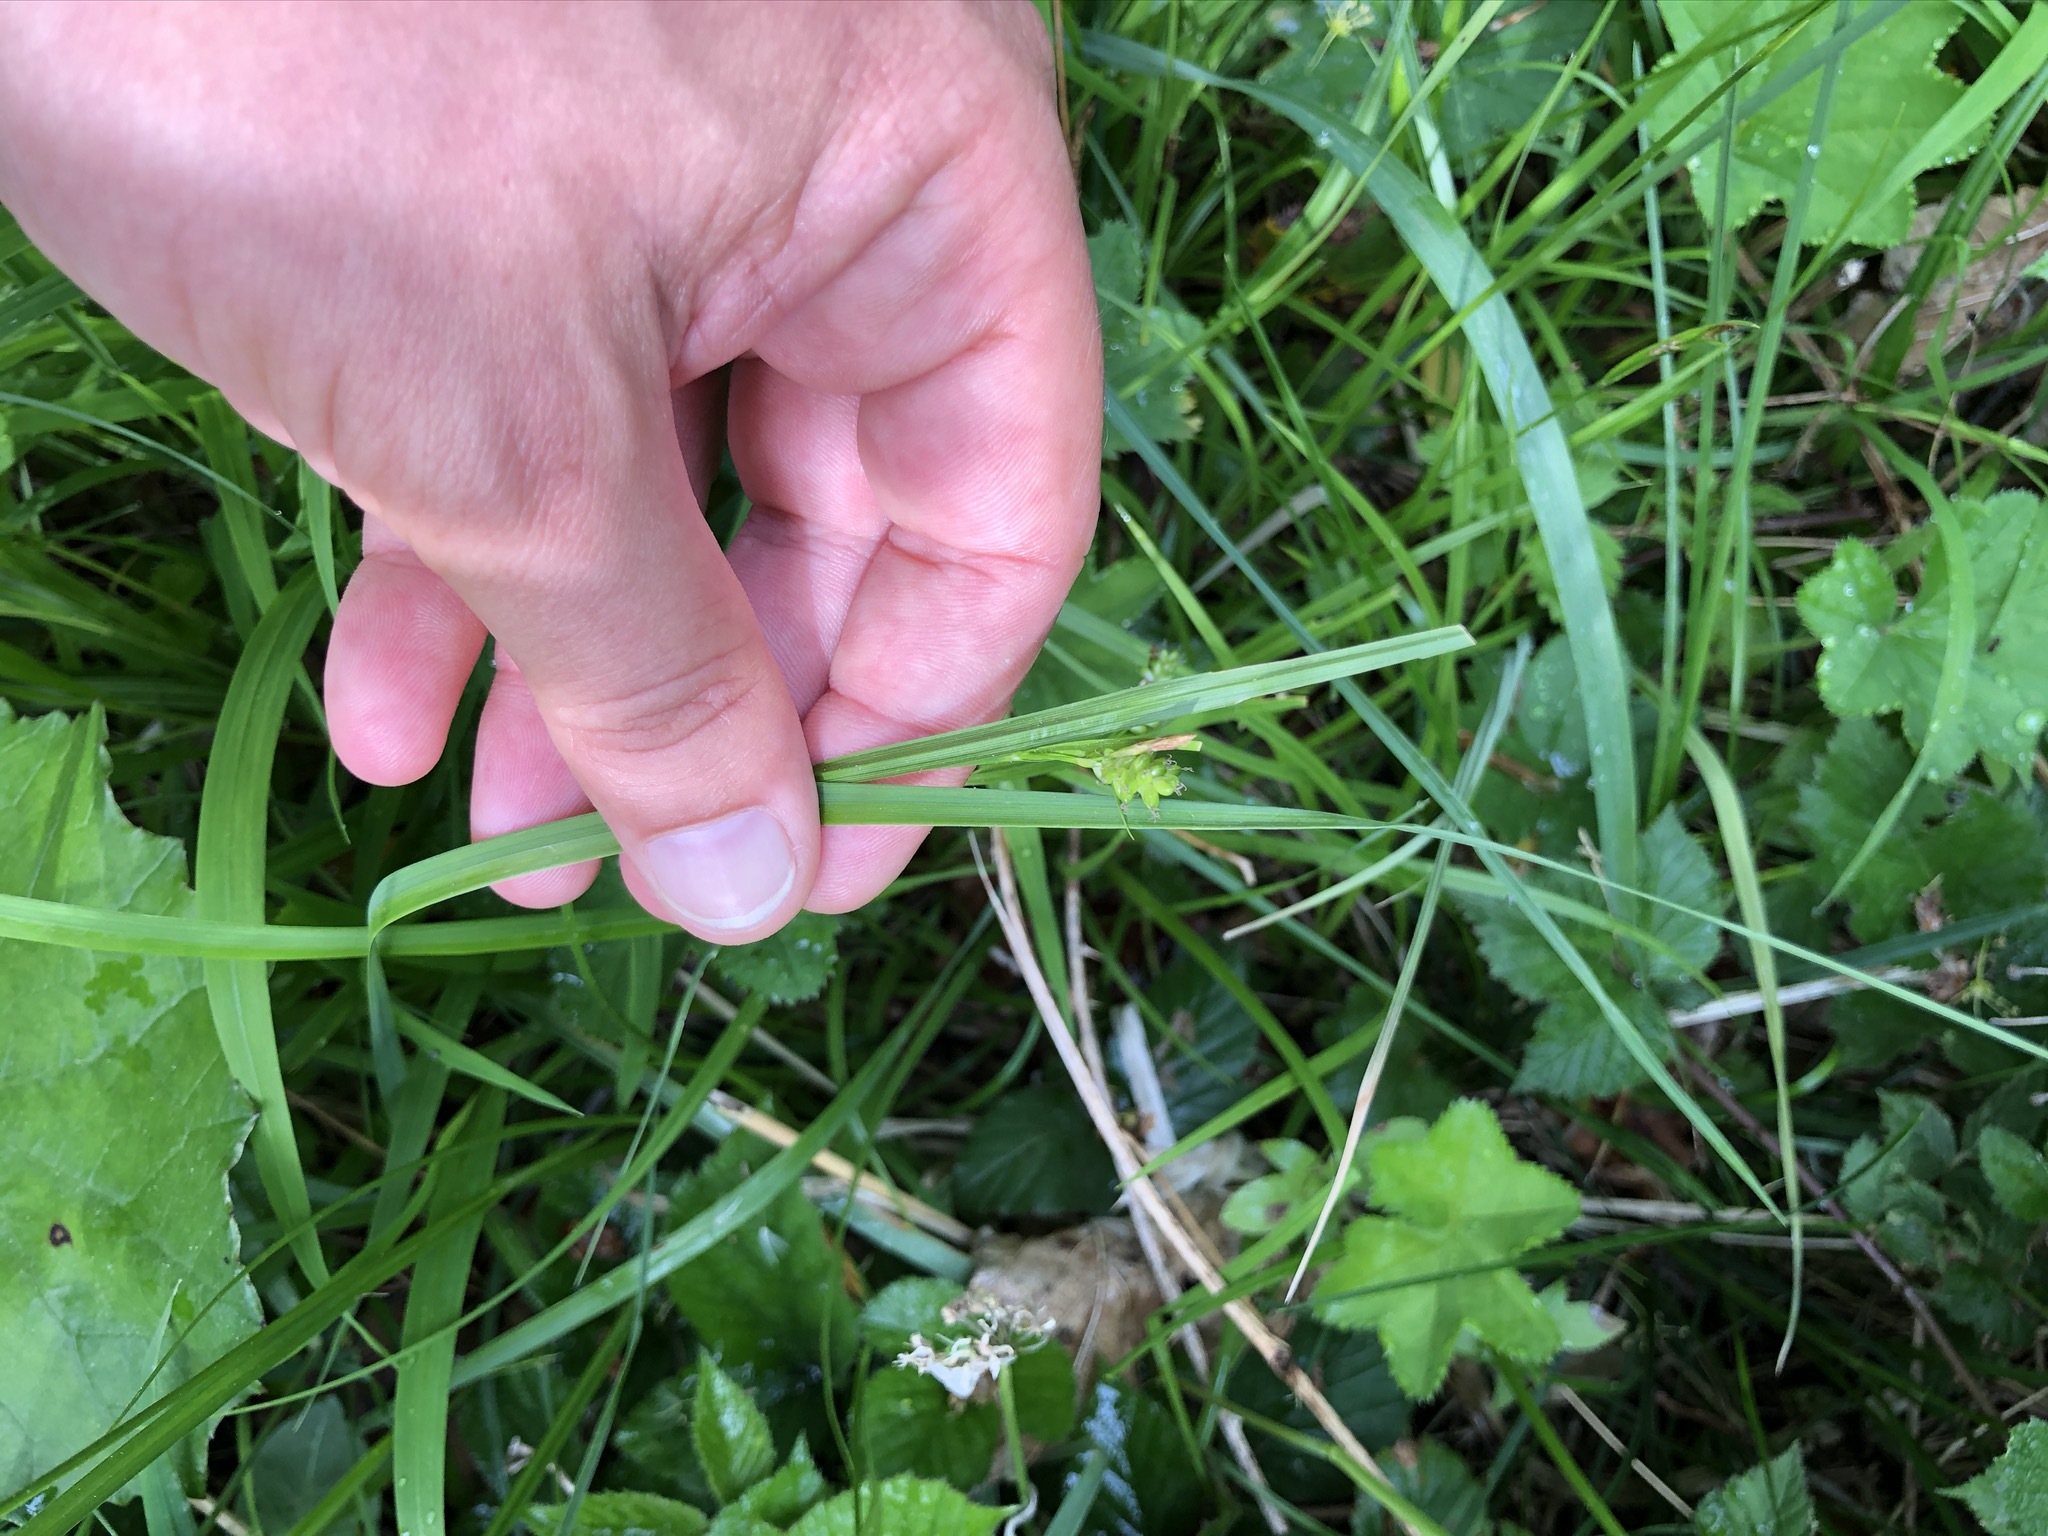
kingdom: Plantae
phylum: Tracheophyta
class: Liliopsida
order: Poales
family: Cyperaceae
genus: Carex
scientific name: Carex pallescens
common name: Pale sedge
